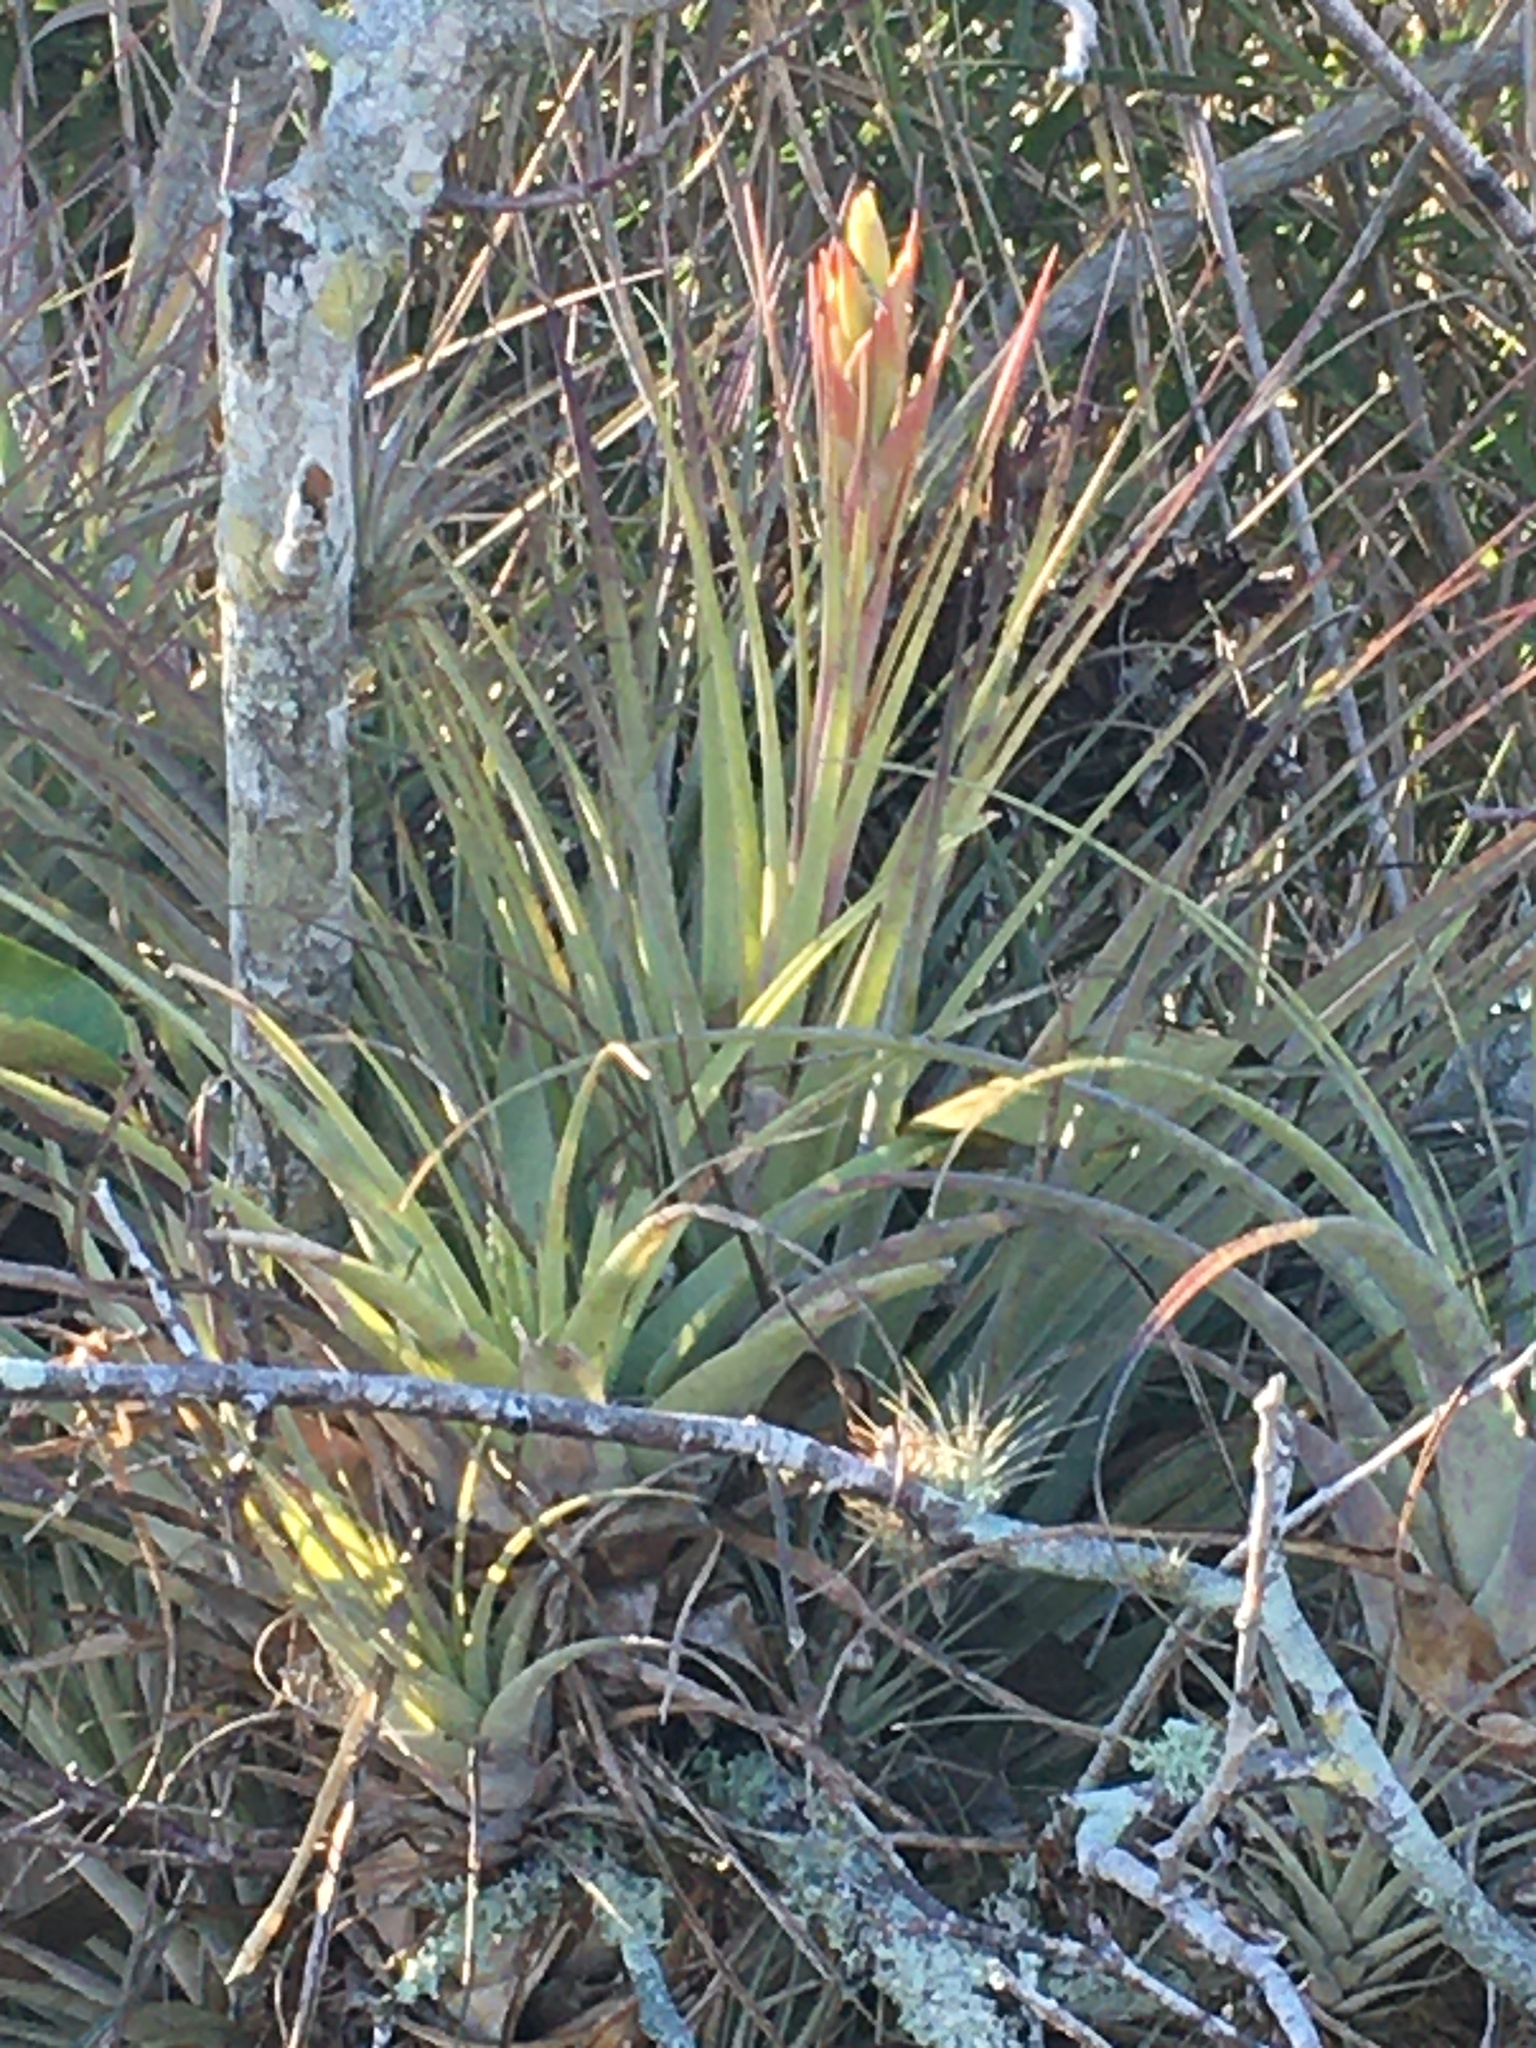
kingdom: Plantae
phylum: Tracheophyta
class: Liliopsida
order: Poales
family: Bromeliaceae
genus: Tillandsia
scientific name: Tillandsia fasciculata
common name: Giant airplant
